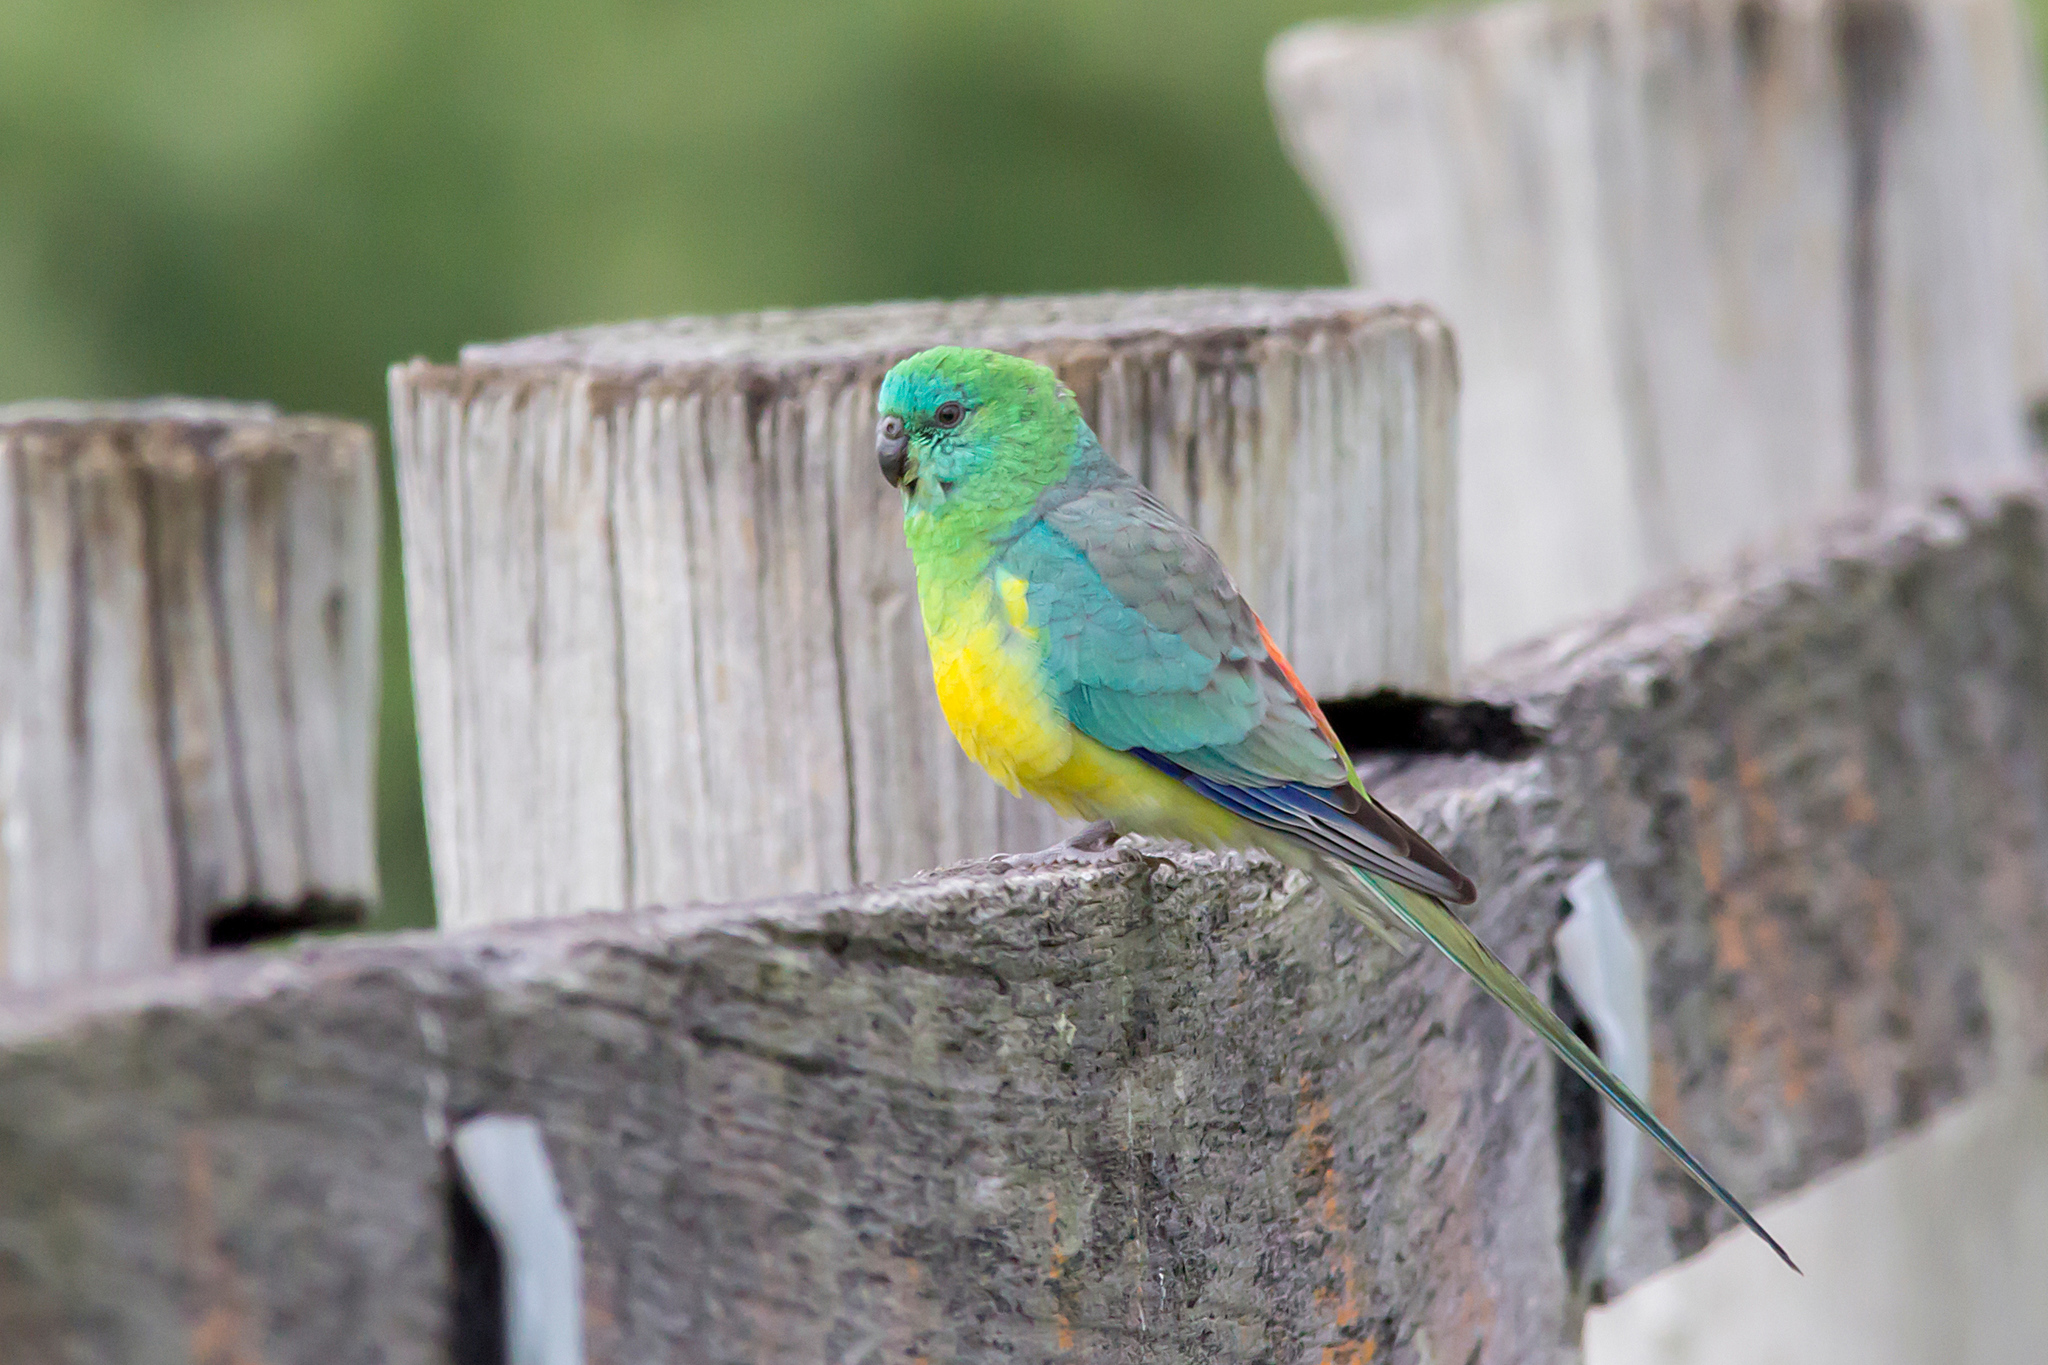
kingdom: Animalia
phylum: Chordata
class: Aves
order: Psittaciformes
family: Psittacidae
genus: Psephotus
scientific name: Psephotus haematonotus
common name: Red-rumped parrot
